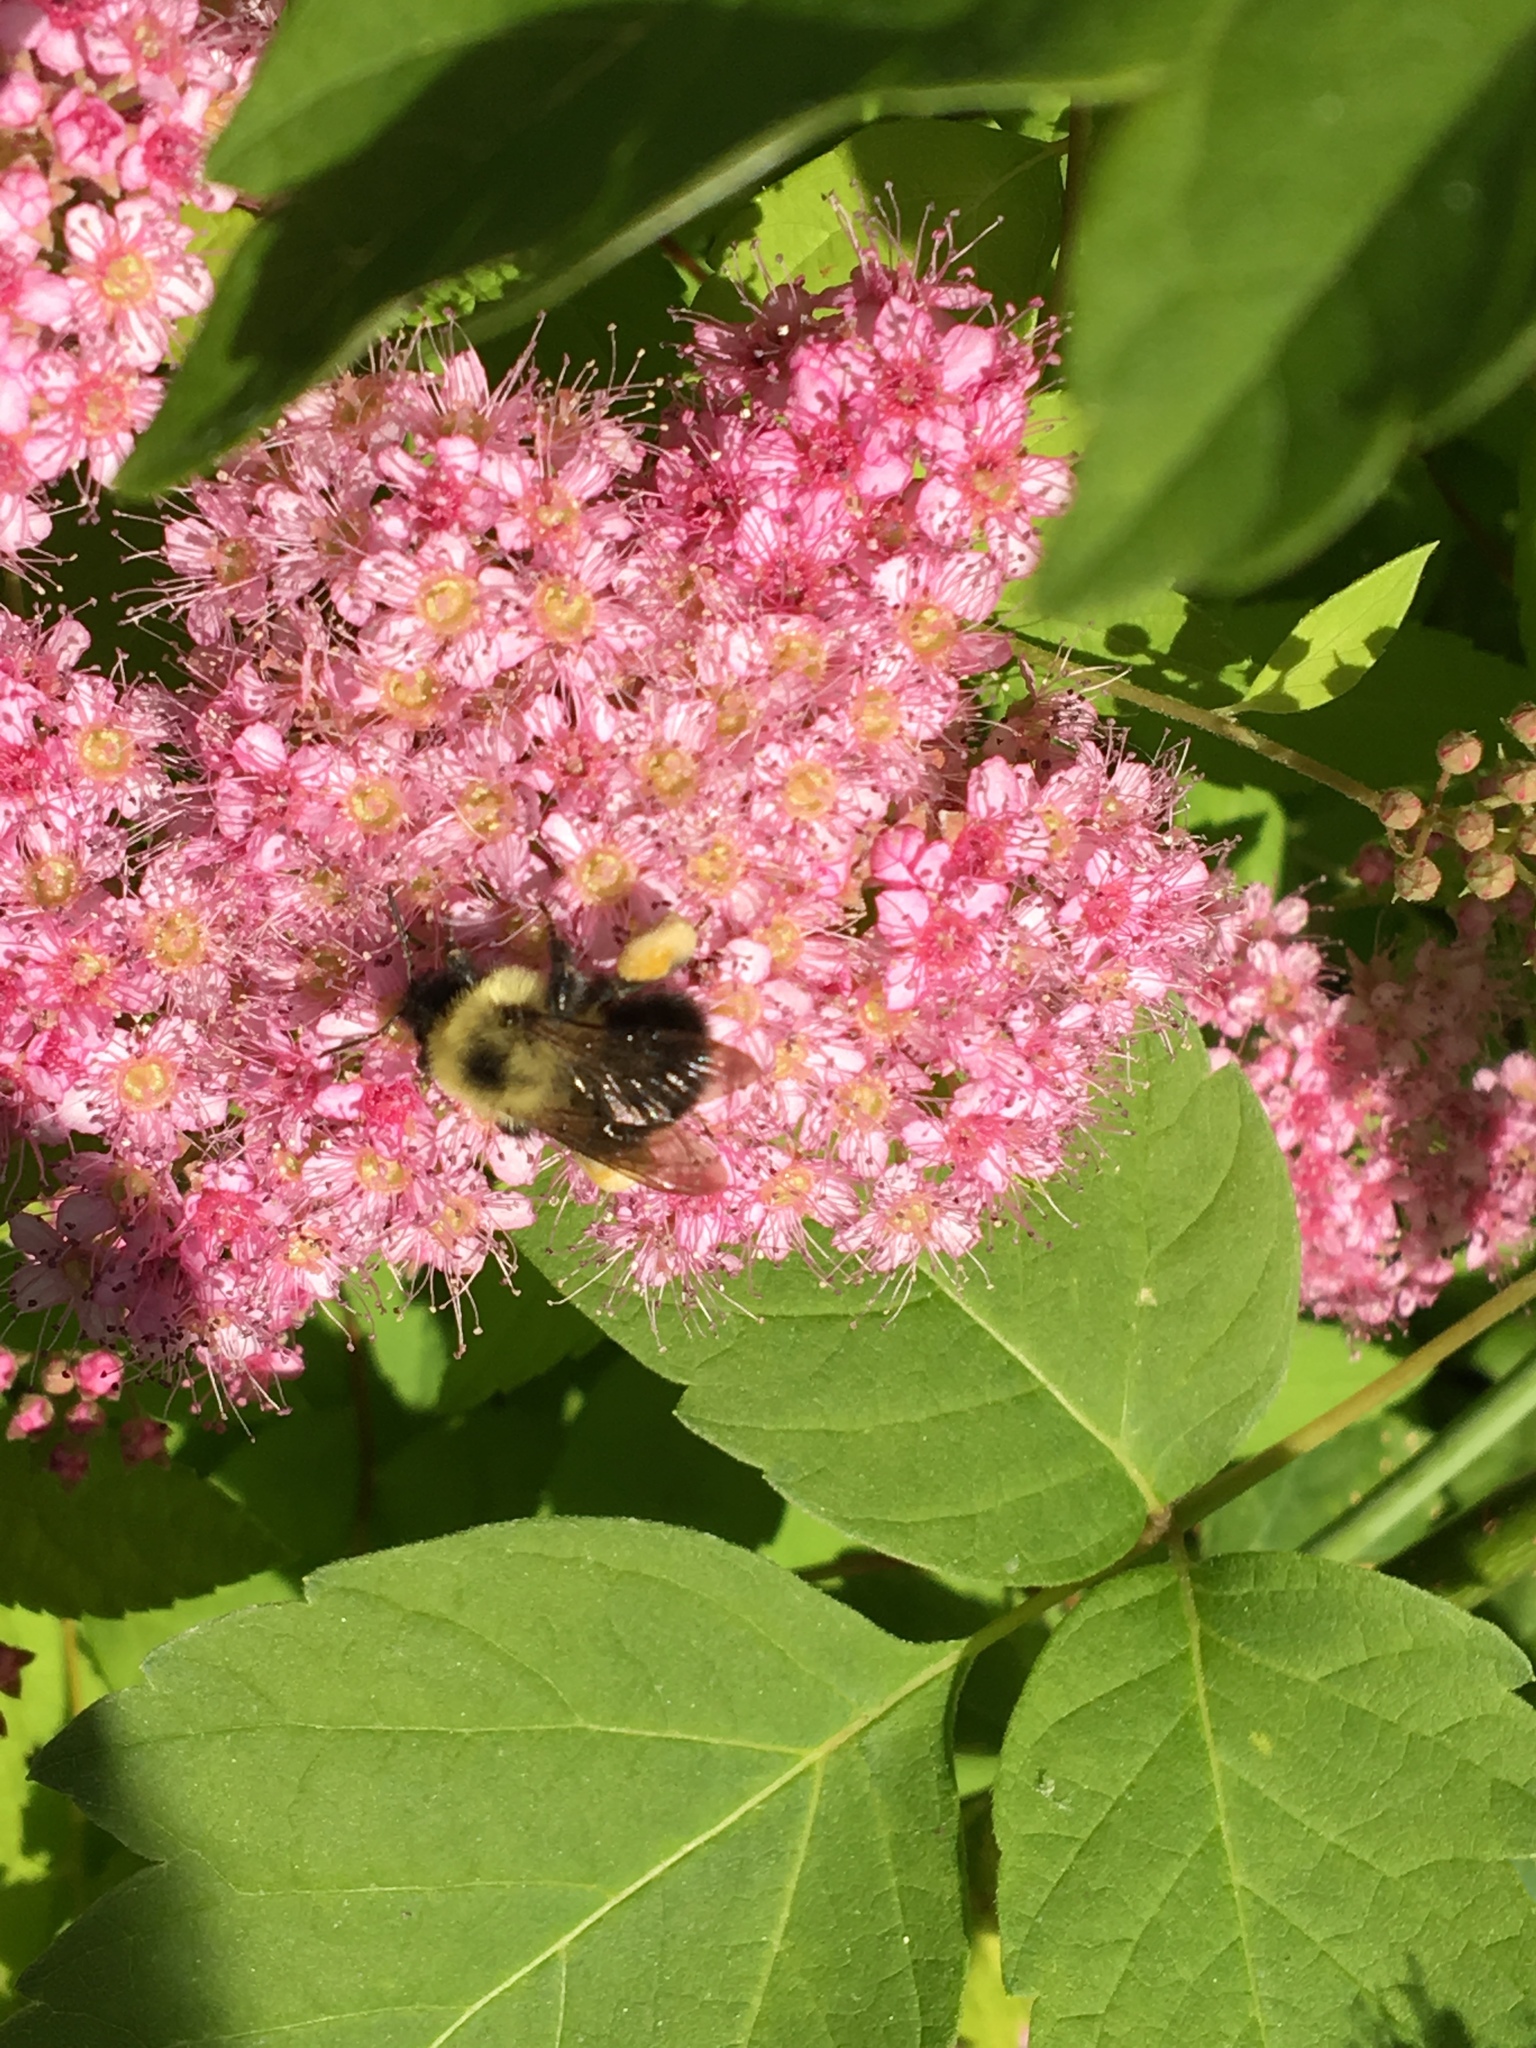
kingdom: Animalia
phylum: Arthropoda
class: Insecta
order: Hymenoptera
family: Apidae
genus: Bombus
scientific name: Bombus bimaculatus
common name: Two-spotted bumble bee
